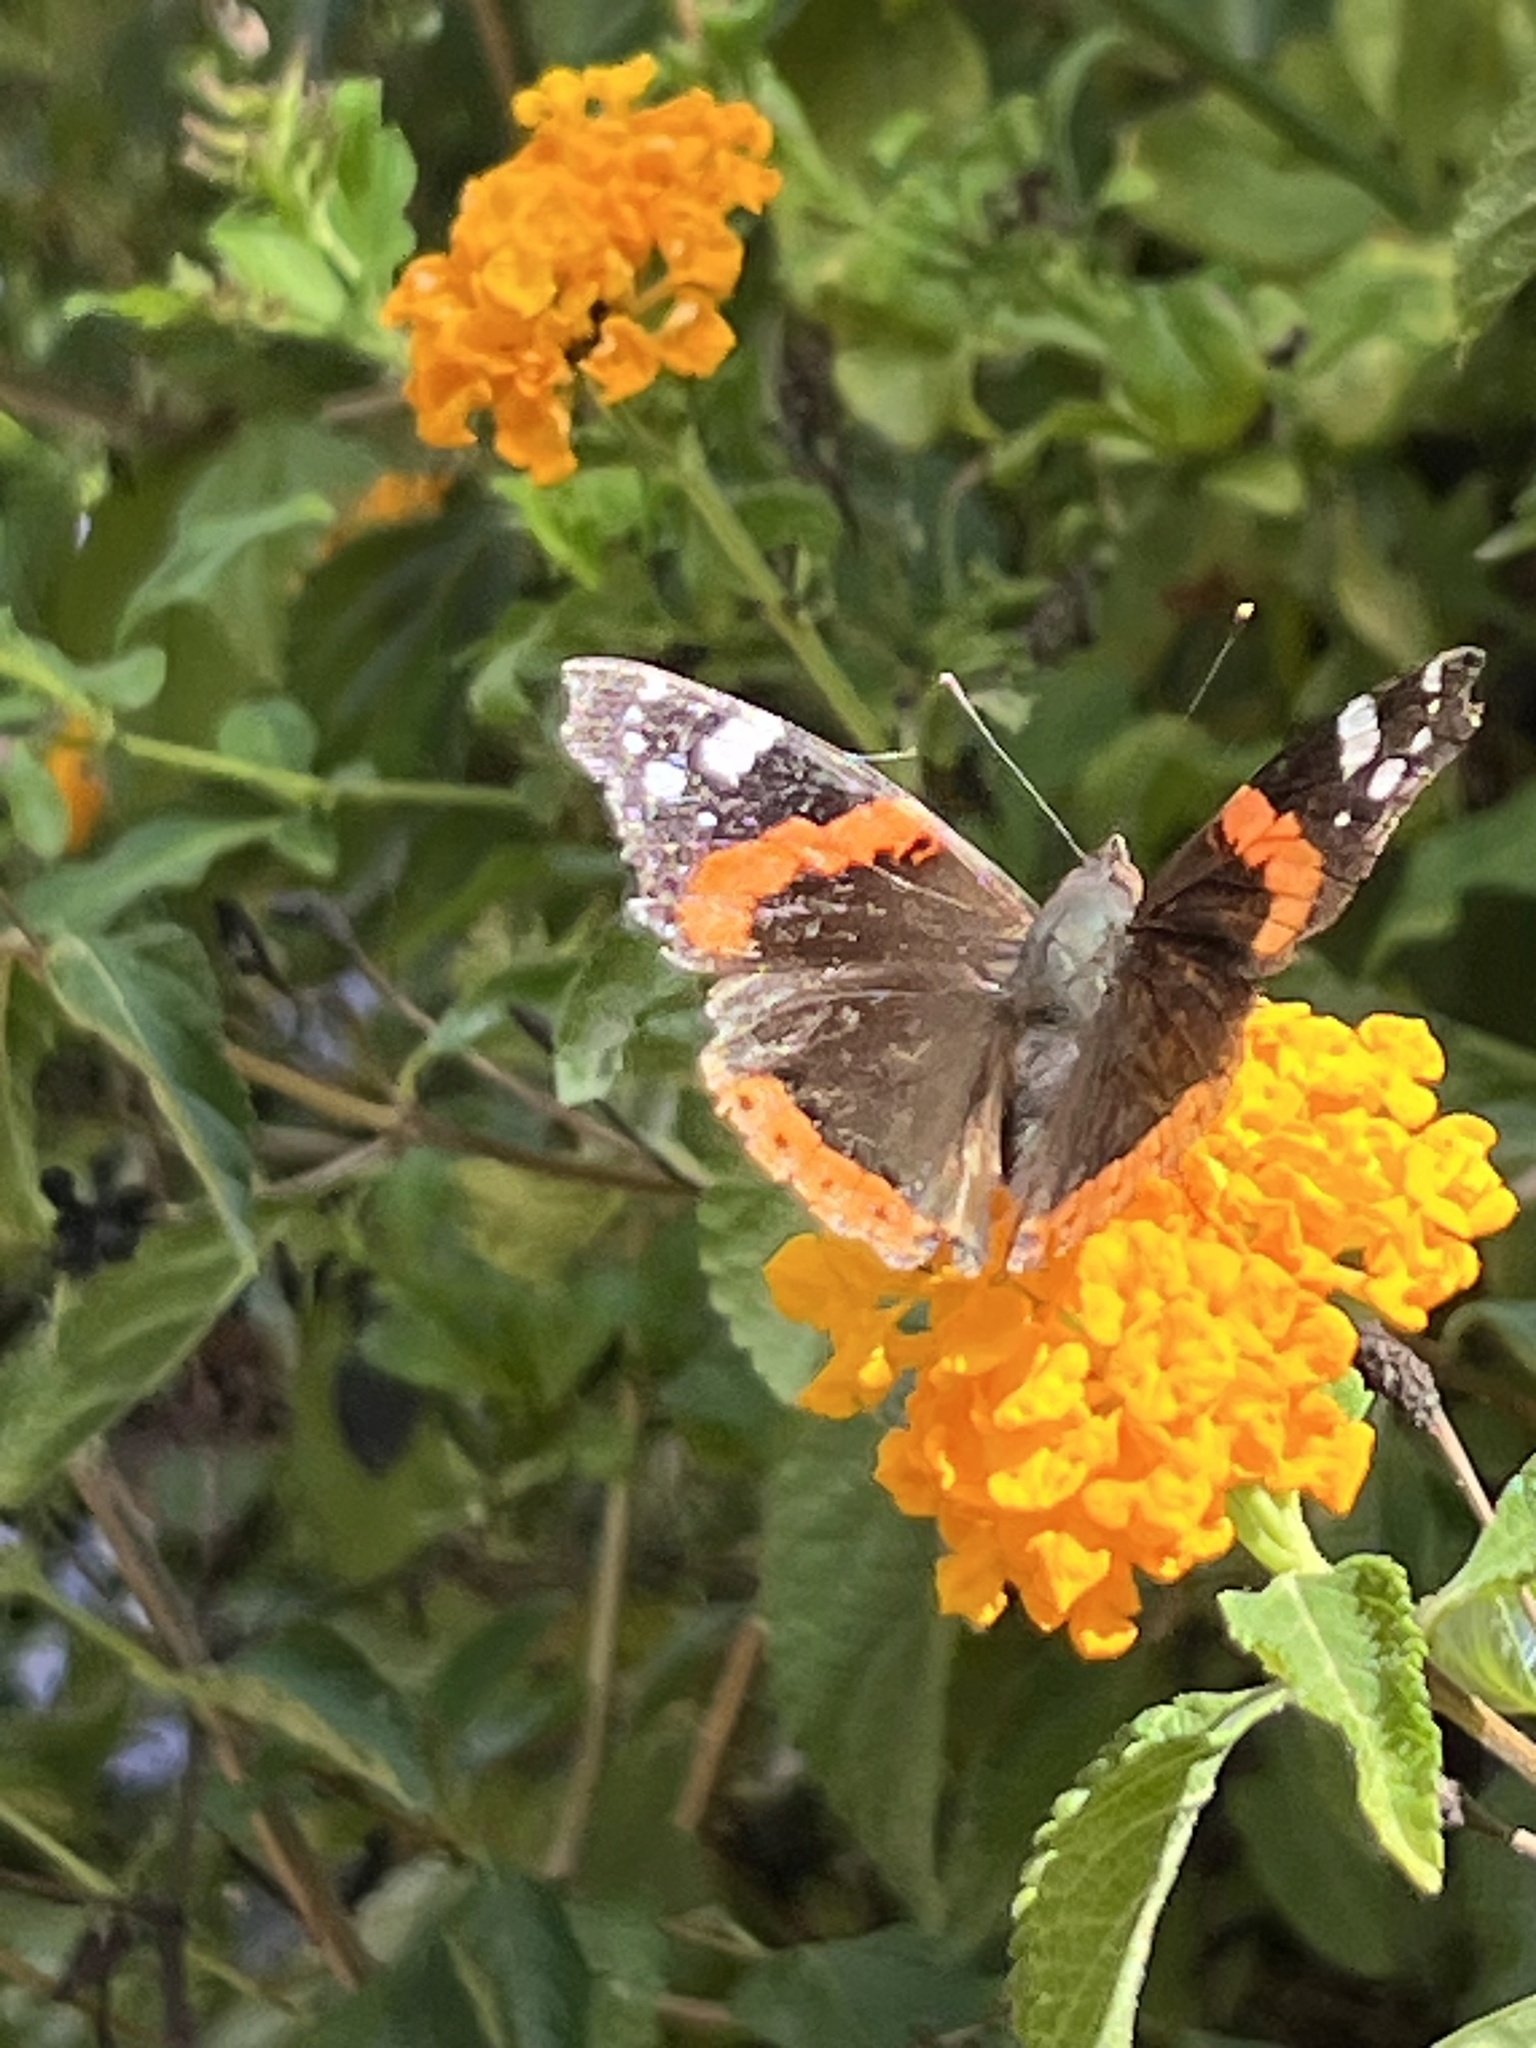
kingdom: Animalia
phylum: Arthropoda
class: Insecta
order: Lepidoptera
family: Nymphalidae
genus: Vanessa
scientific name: Vanessa atalanta
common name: Red admiral
